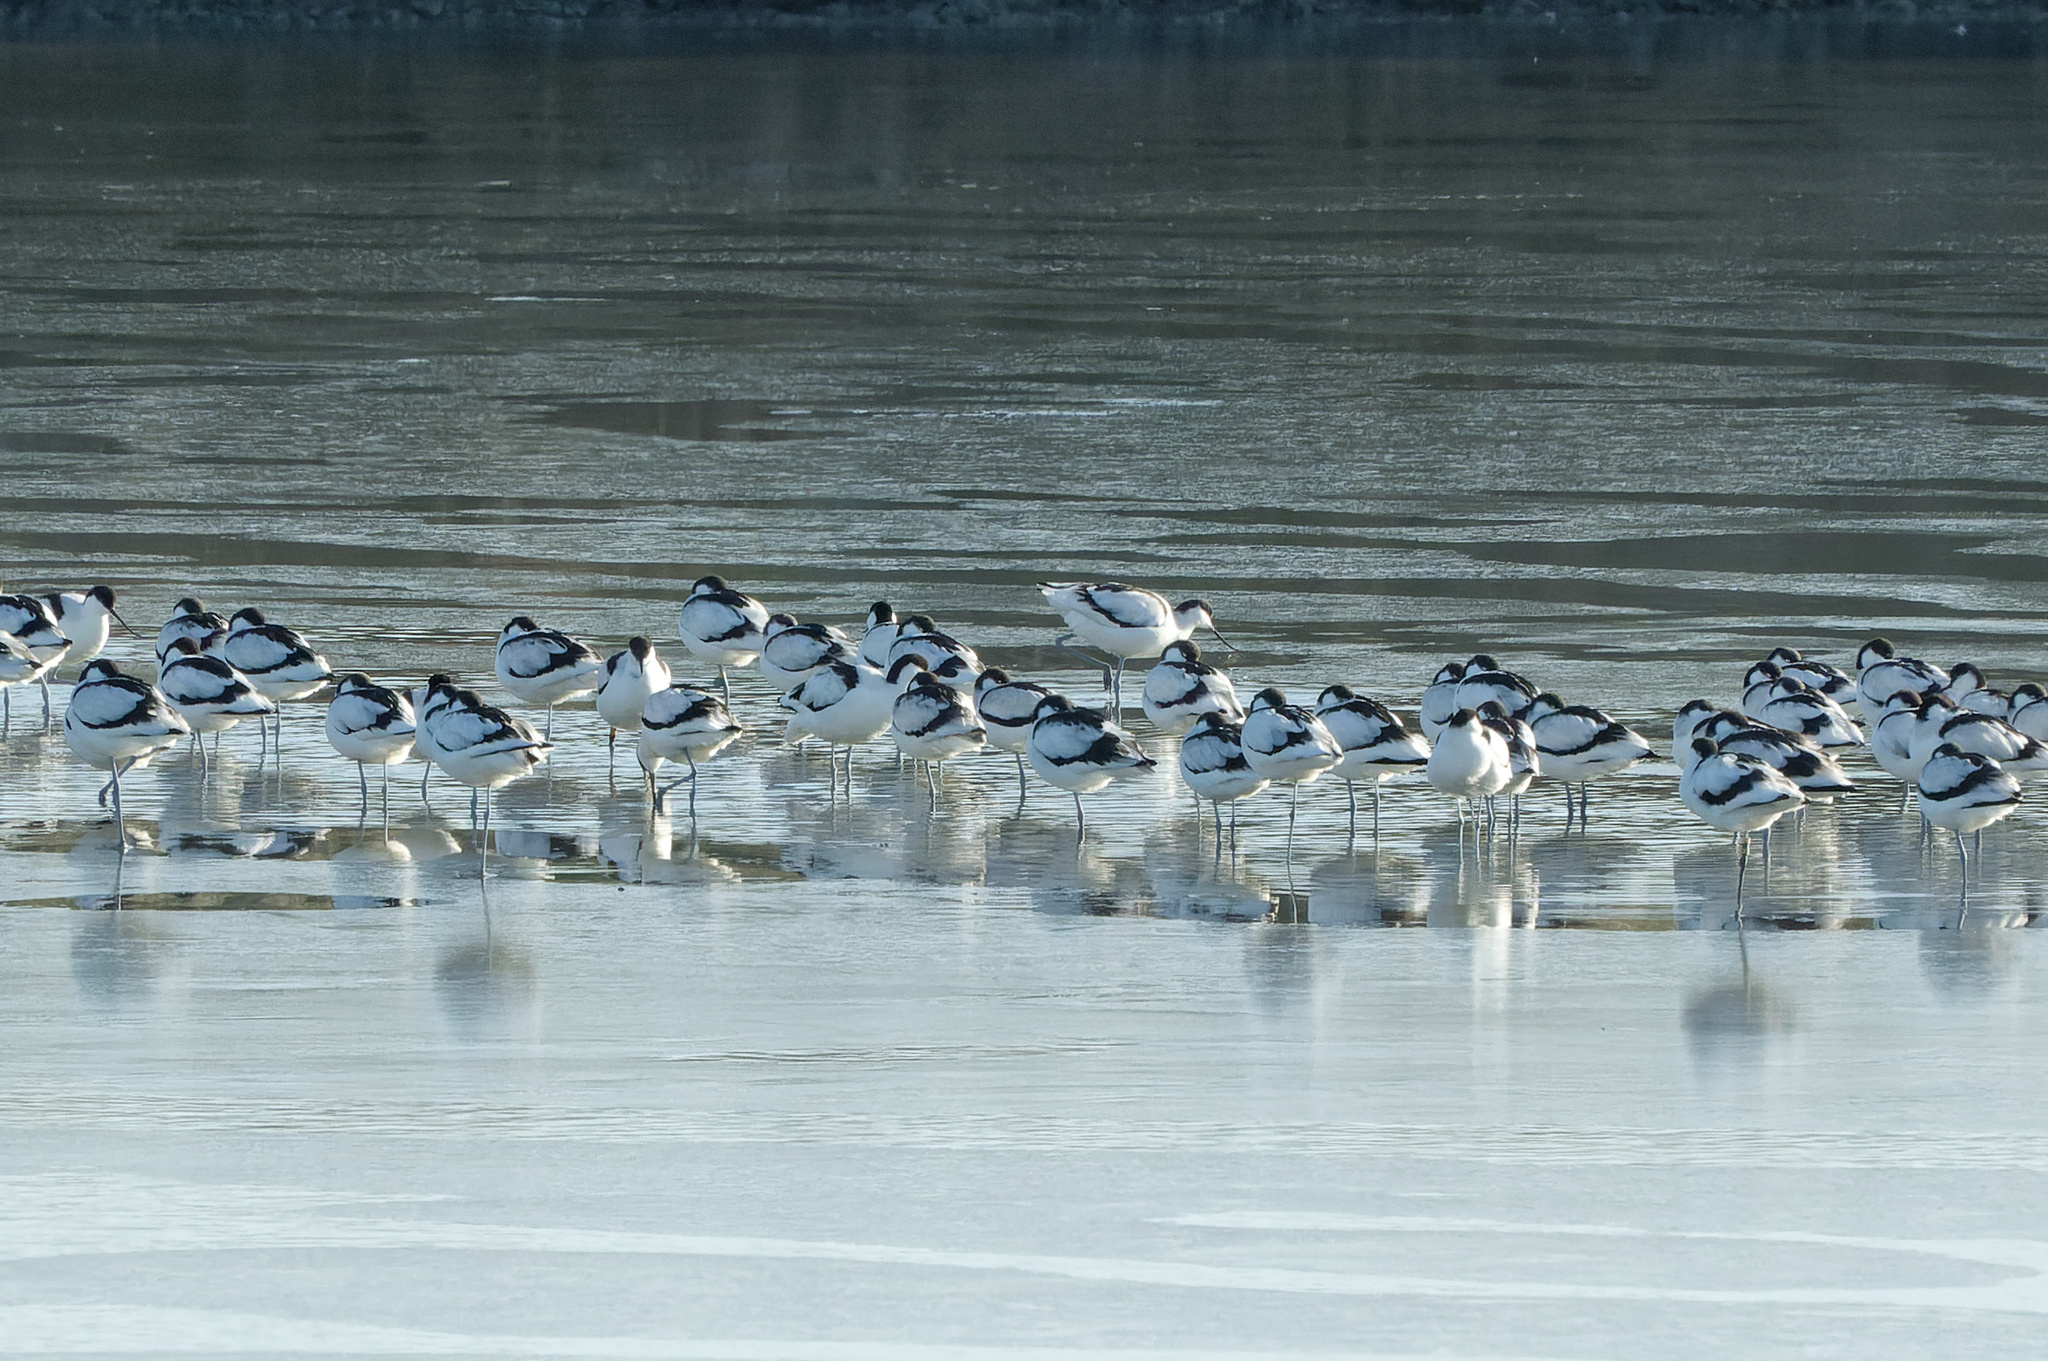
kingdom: Animalia
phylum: Chordata
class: Aves
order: Charadriiformes
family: Recurvirostridae
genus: Recurvirostra
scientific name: Recurvirostra avosetta
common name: Pied avocet
